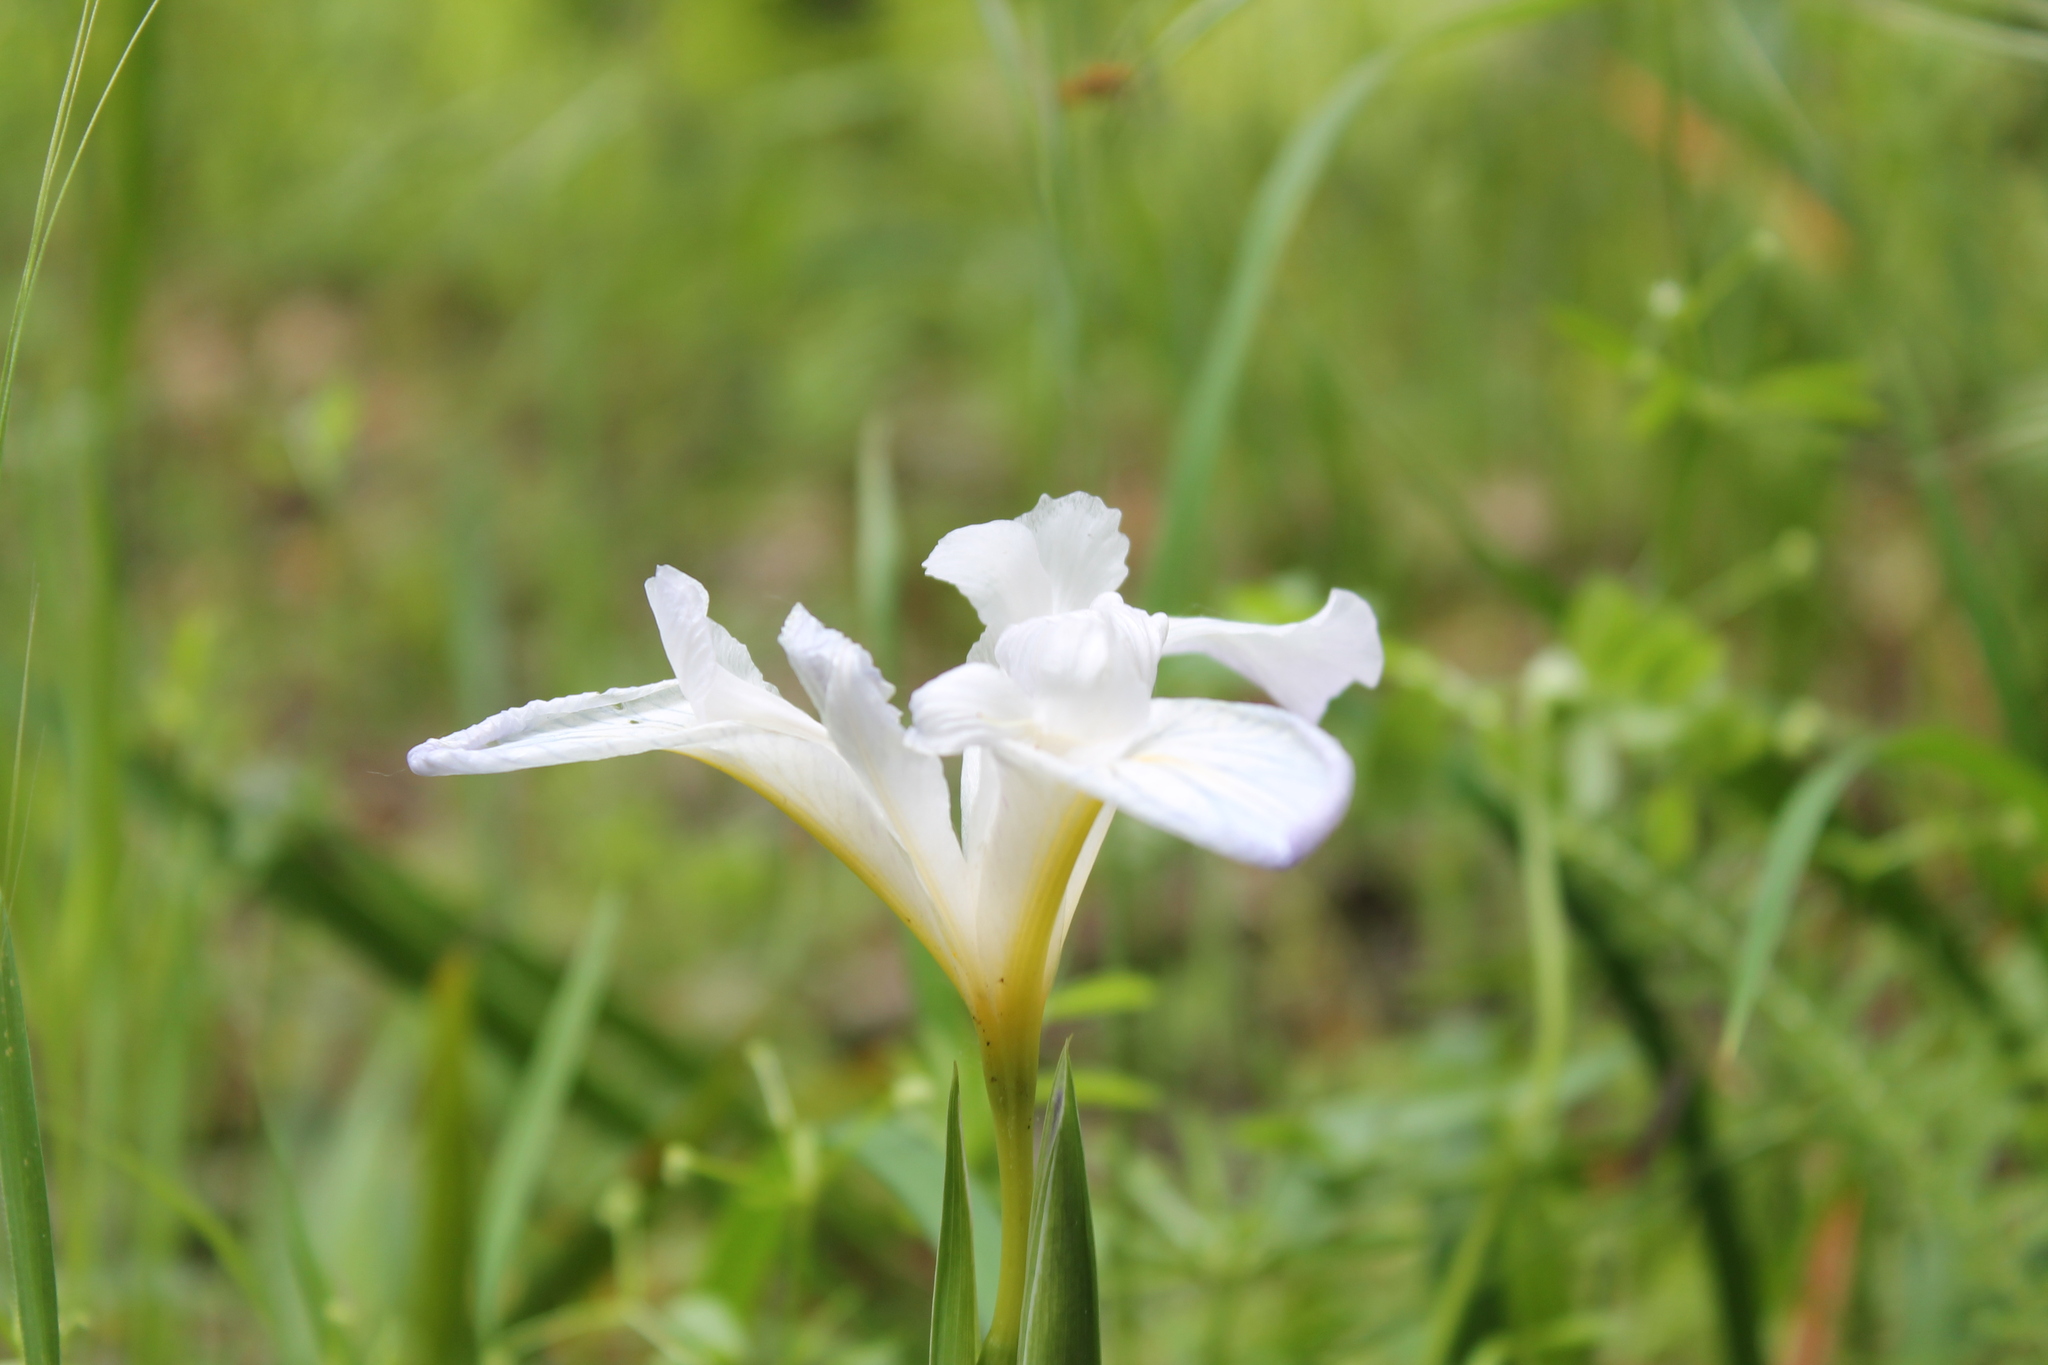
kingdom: Plantae
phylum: Tracheophyta
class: Liliopsida
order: Asparagales
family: Iridaceae
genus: Iris
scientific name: Iris douglasiana
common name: Marin iris
